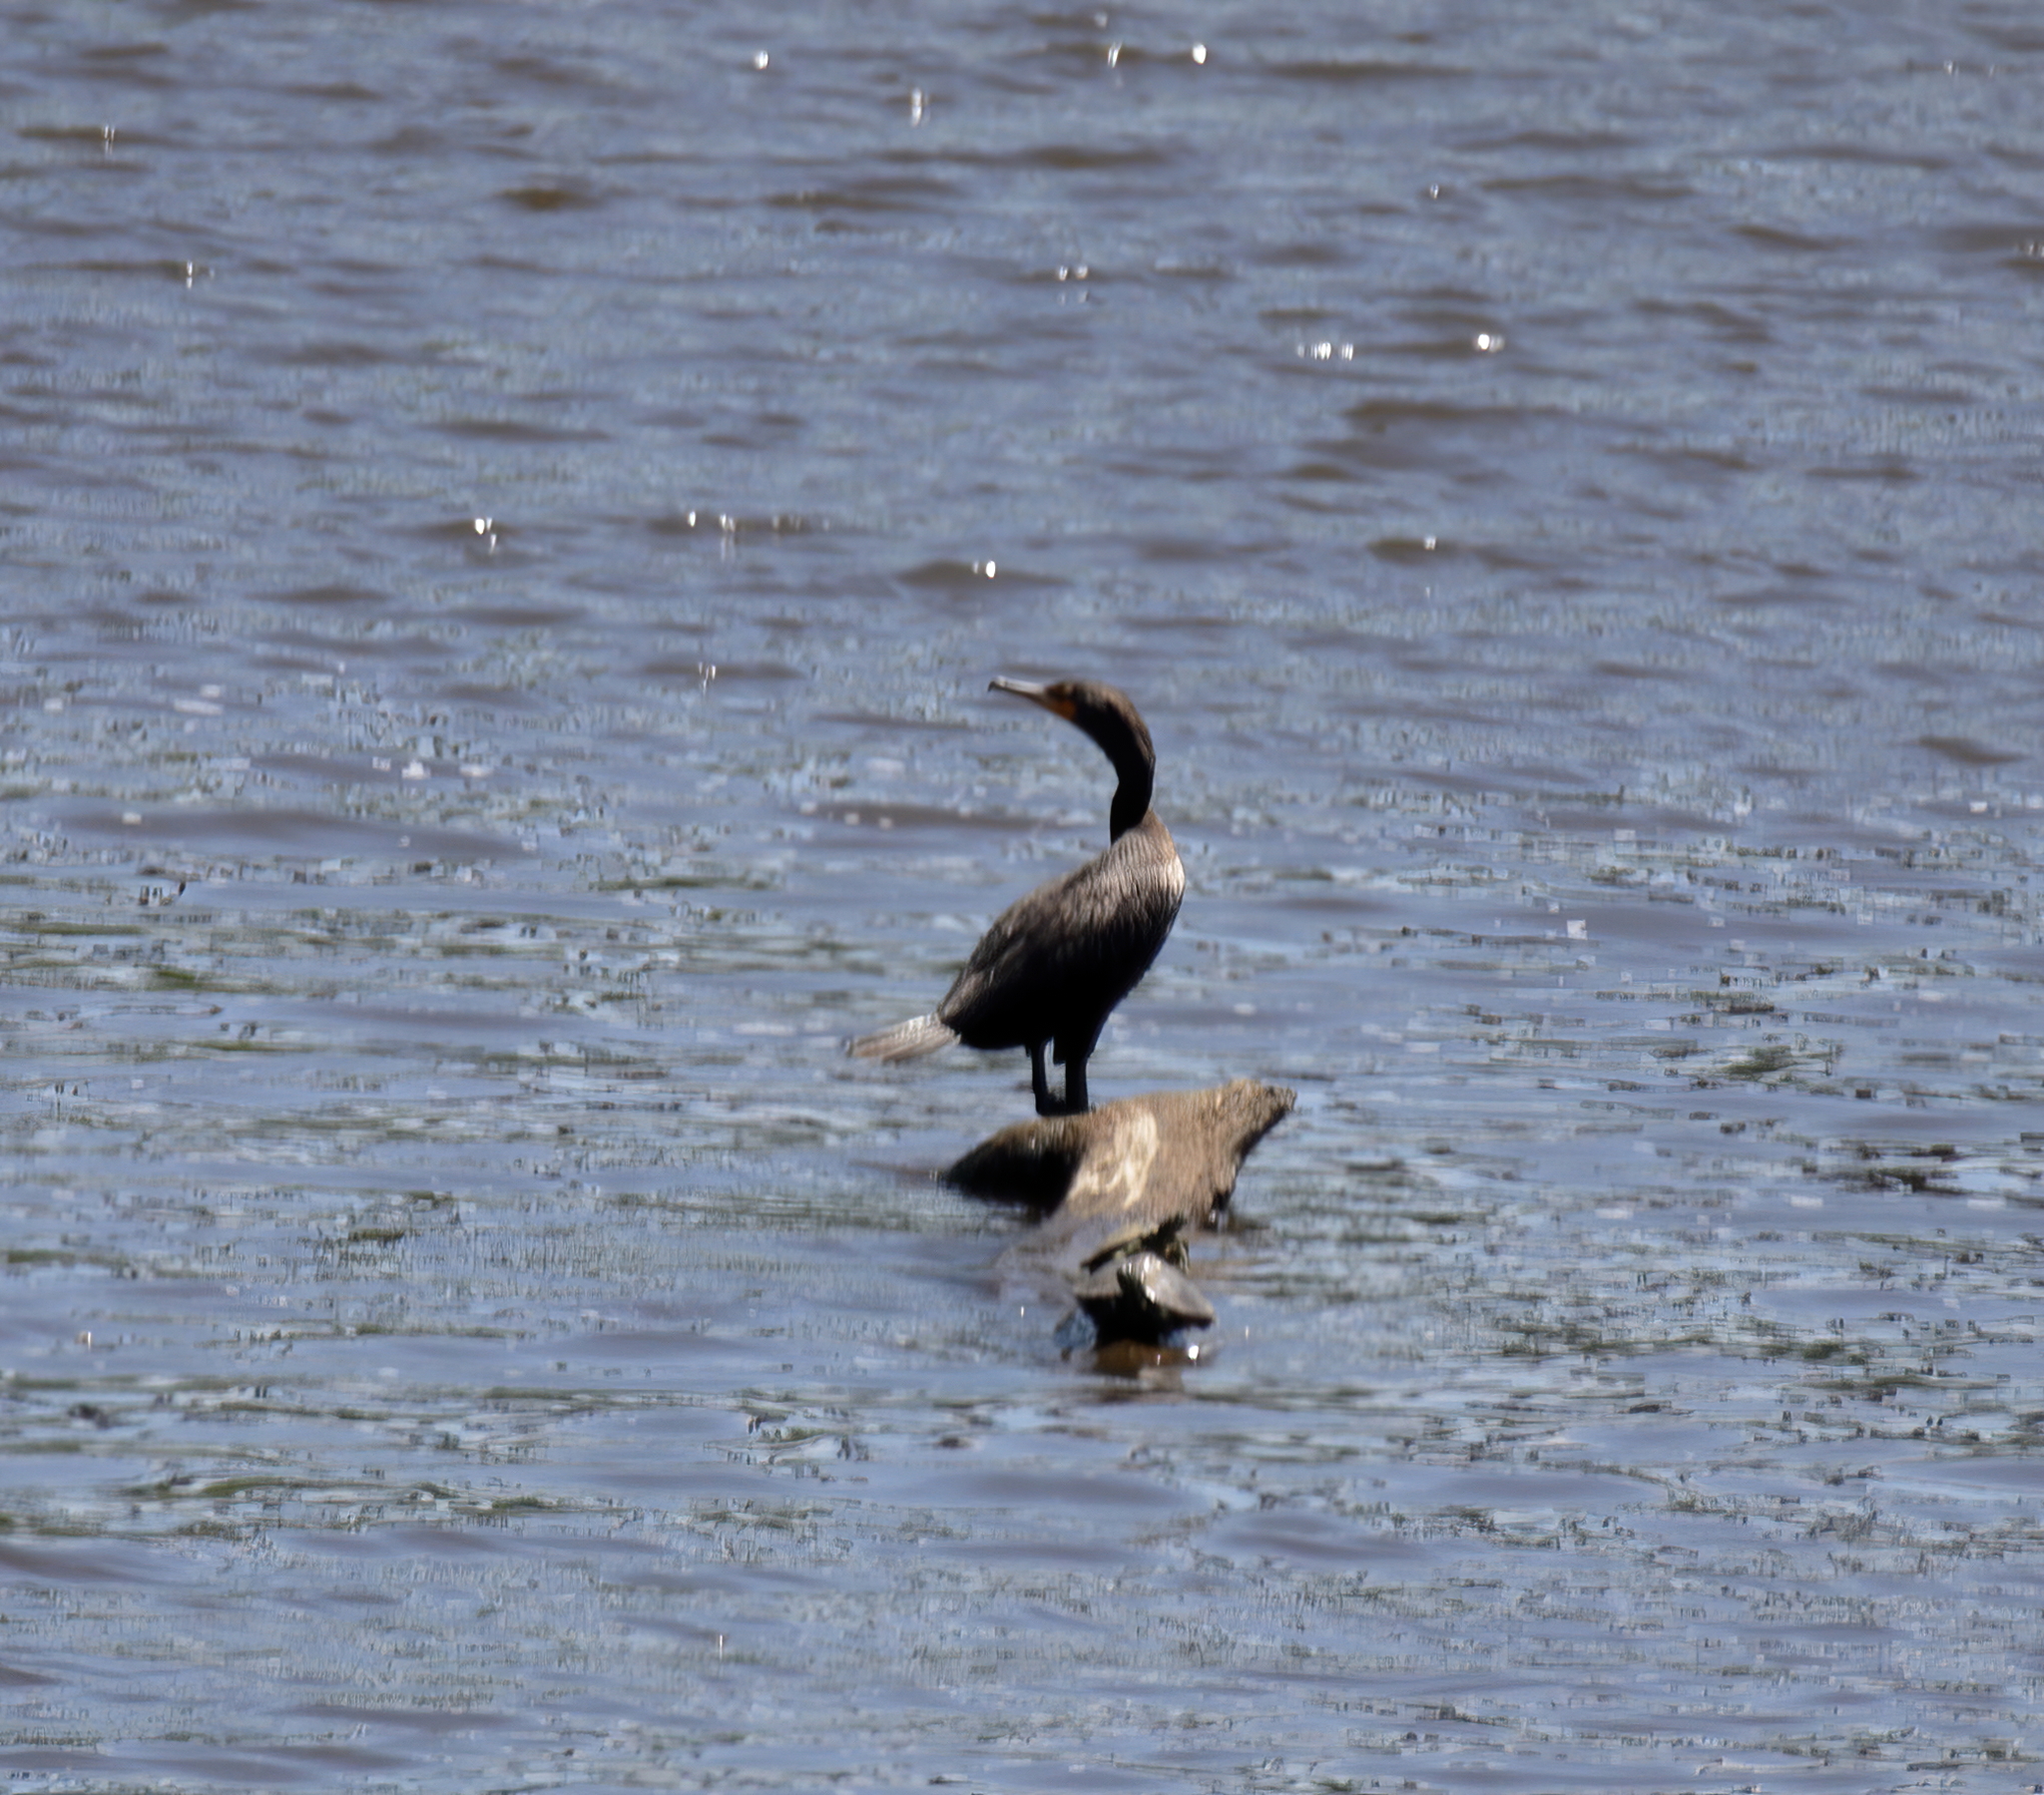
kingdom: Animalia
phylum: Chordata
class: Aves
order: Suliformes
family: Phalacrocoracidae
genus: Phalacrocorax
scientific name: Phalacrocorax auritus
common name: Double-crested cormorant
